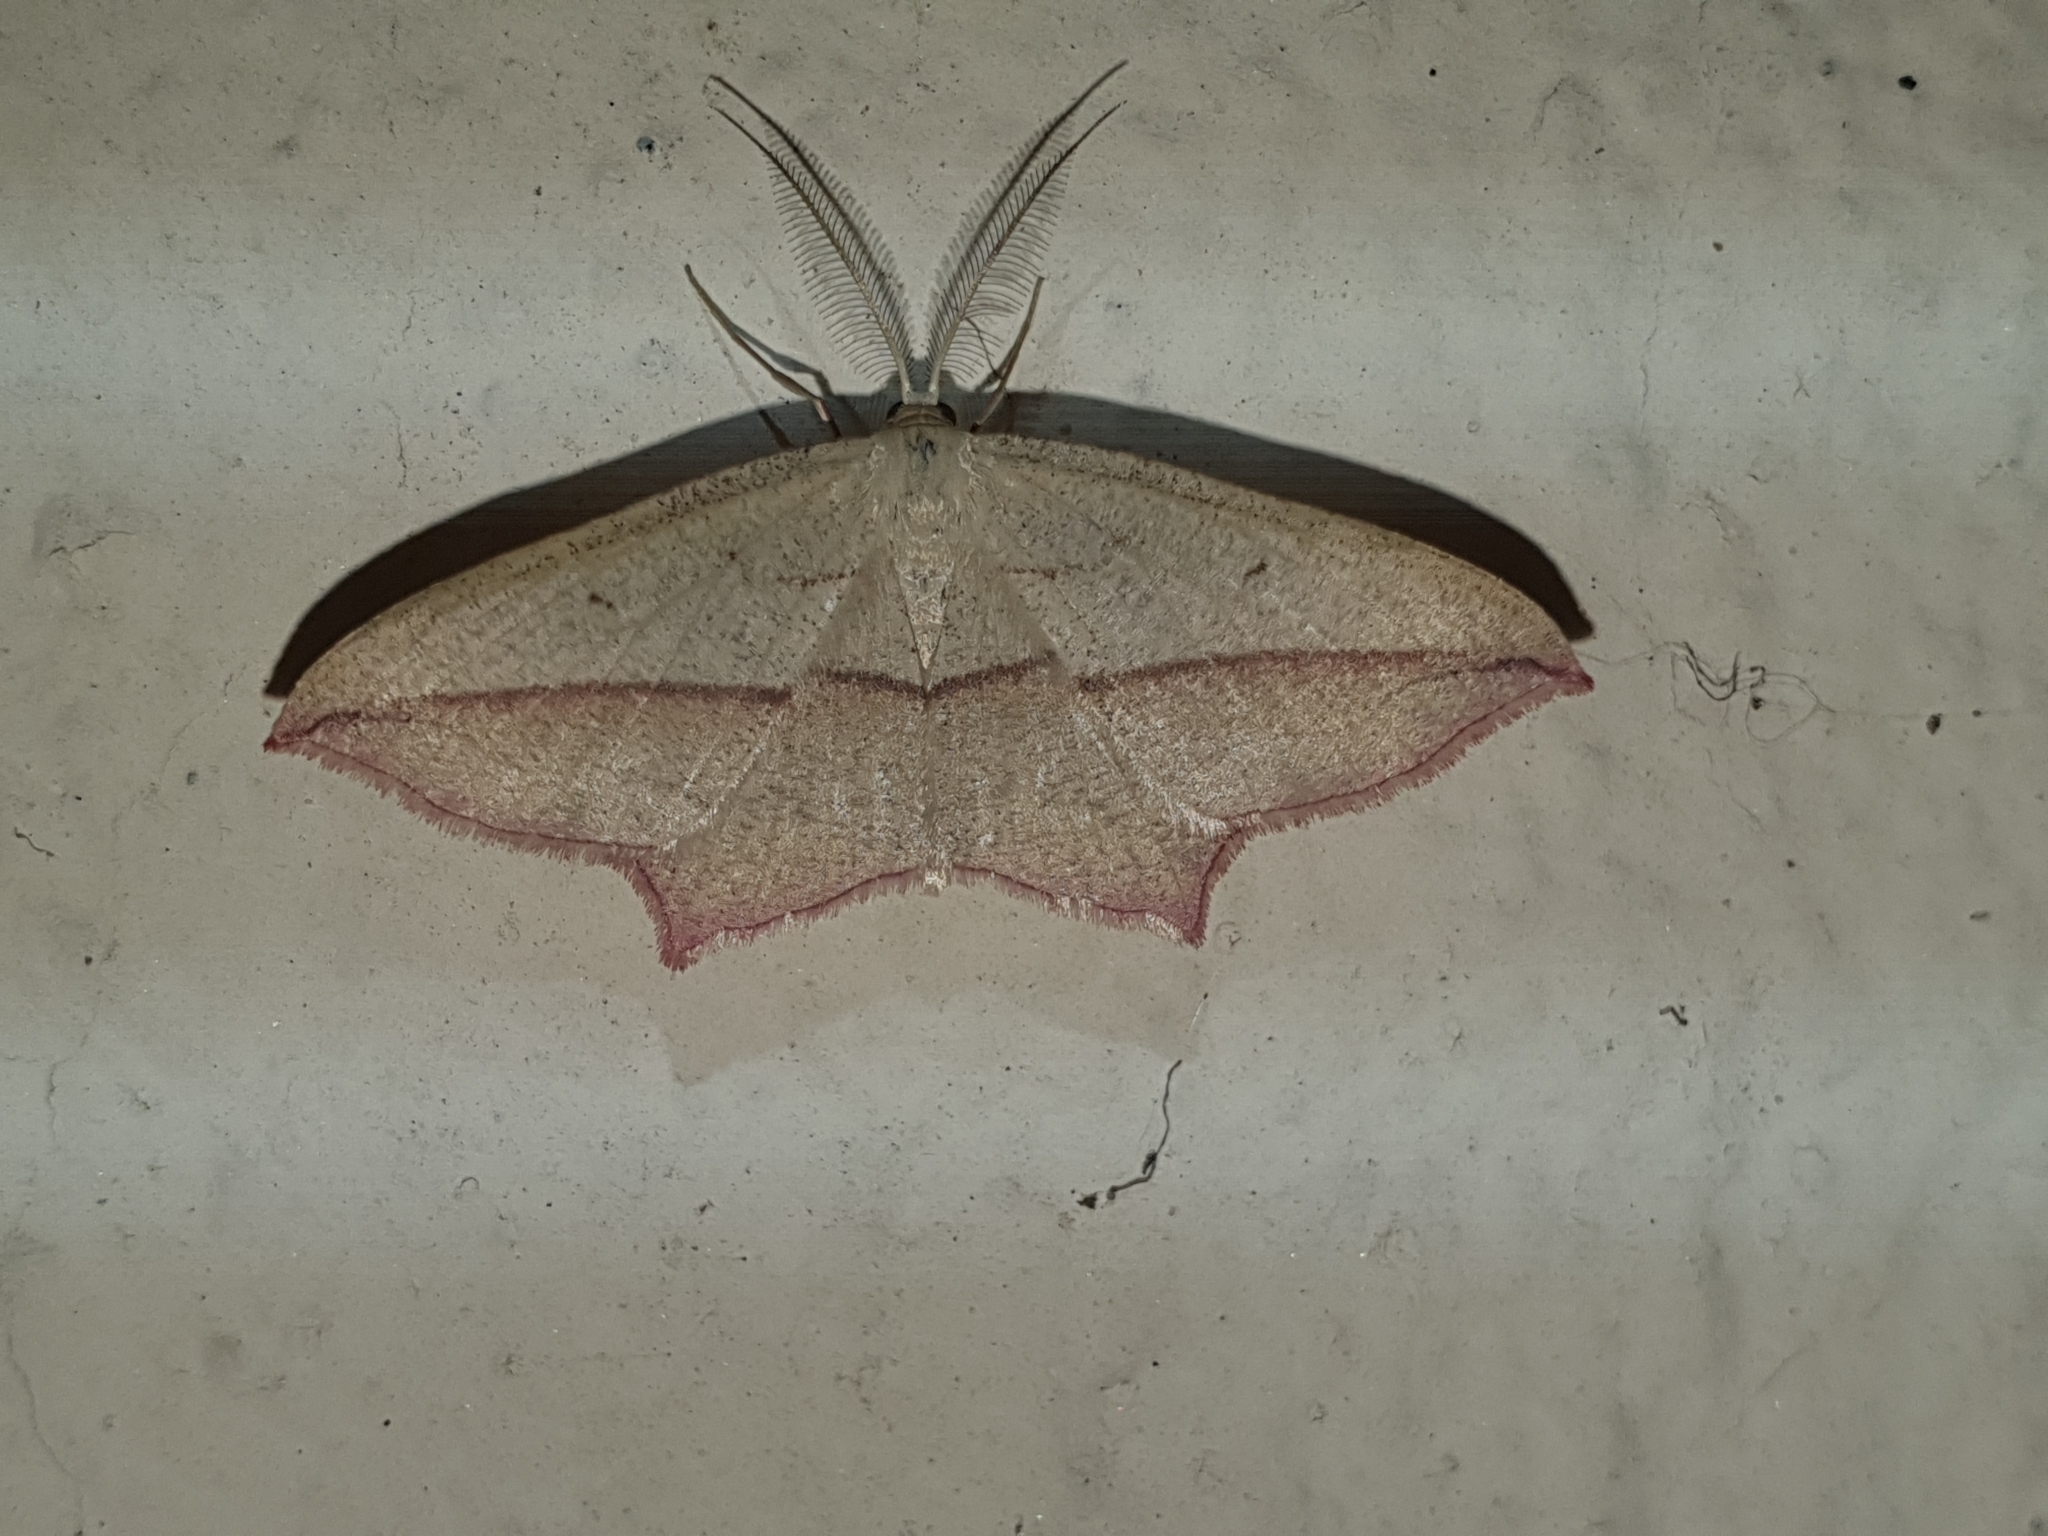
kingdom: Animalia
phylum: Arthropoda
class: Insecta
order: Lepidoptera
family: Geometridae
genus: Timandra
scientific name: Timandra comae
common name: Blood-vein
